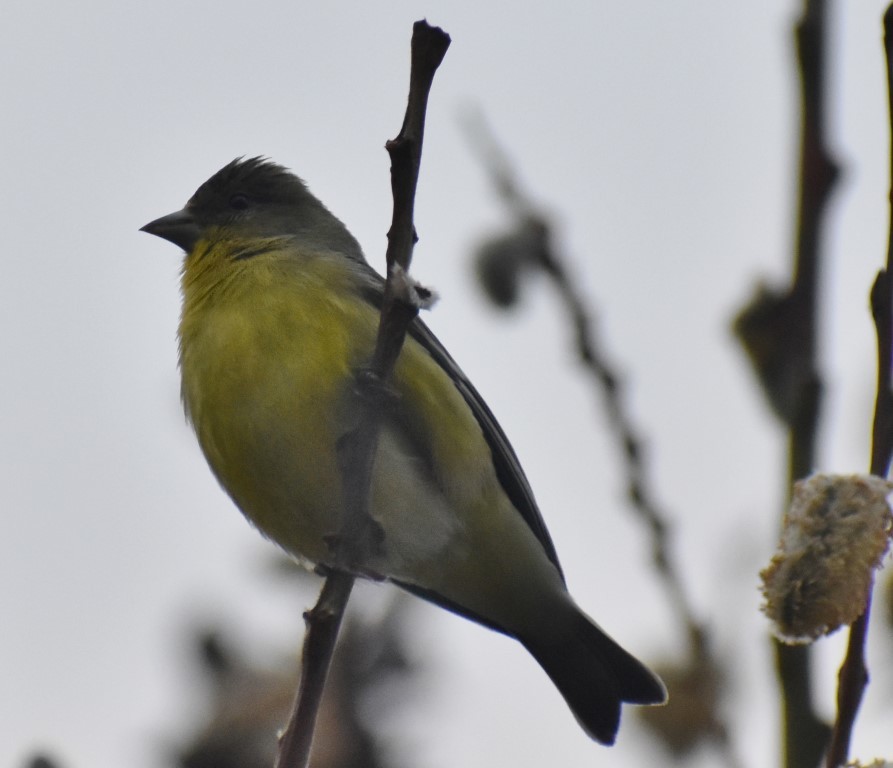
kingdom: Animalia
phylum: Chordata
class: Aves
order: Passeriformes
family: Fringillidae
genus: Spinus
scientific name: Spinus psaltria
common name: Lesser goldfinch
